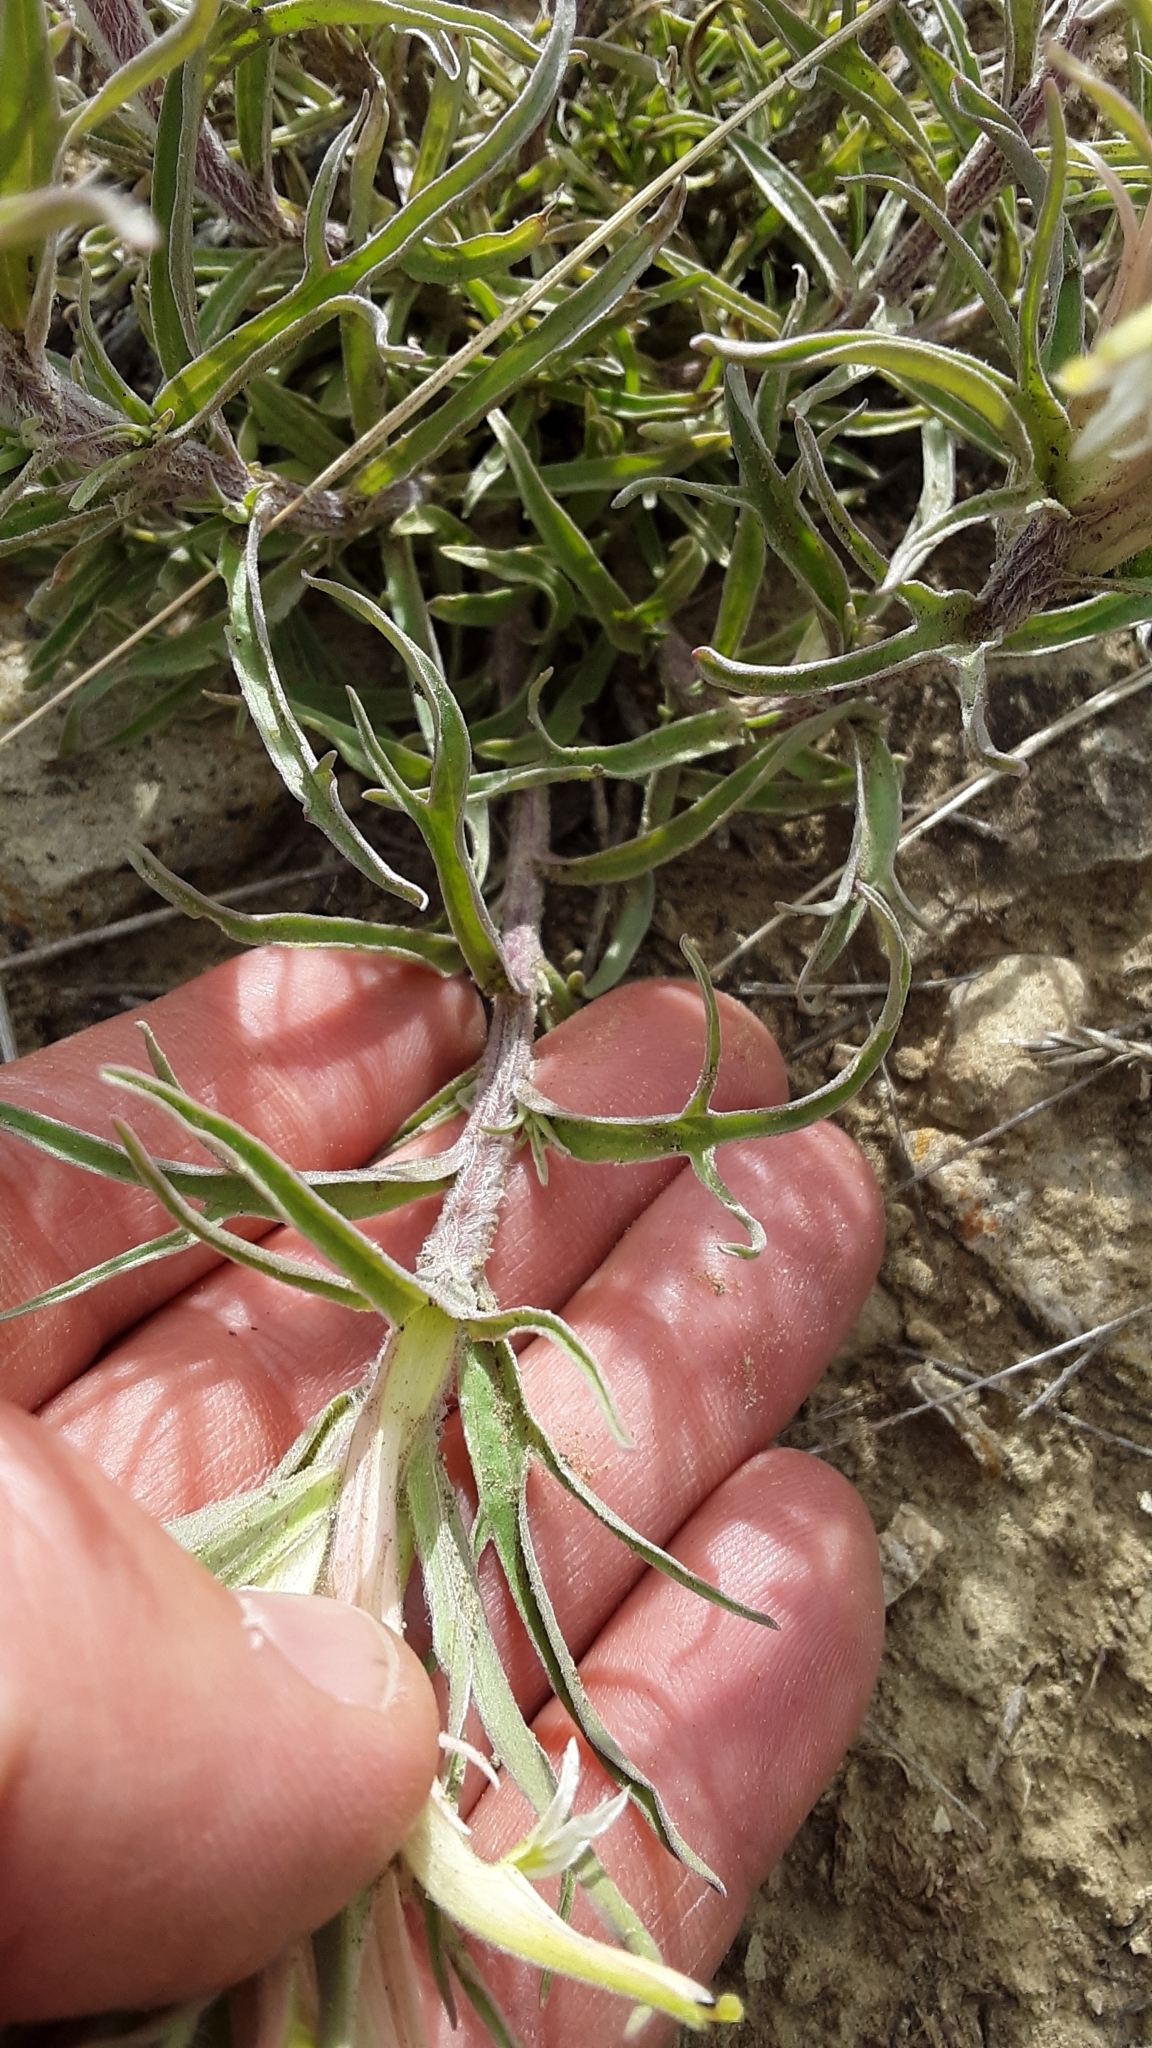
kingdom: Plantae
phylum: Tracheophyta
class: Magnoliopsida
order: Lamiales
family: Orobanchaceae
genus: Castilleja
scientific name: Castilleja sessiliflora
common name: Downy paintbrush
